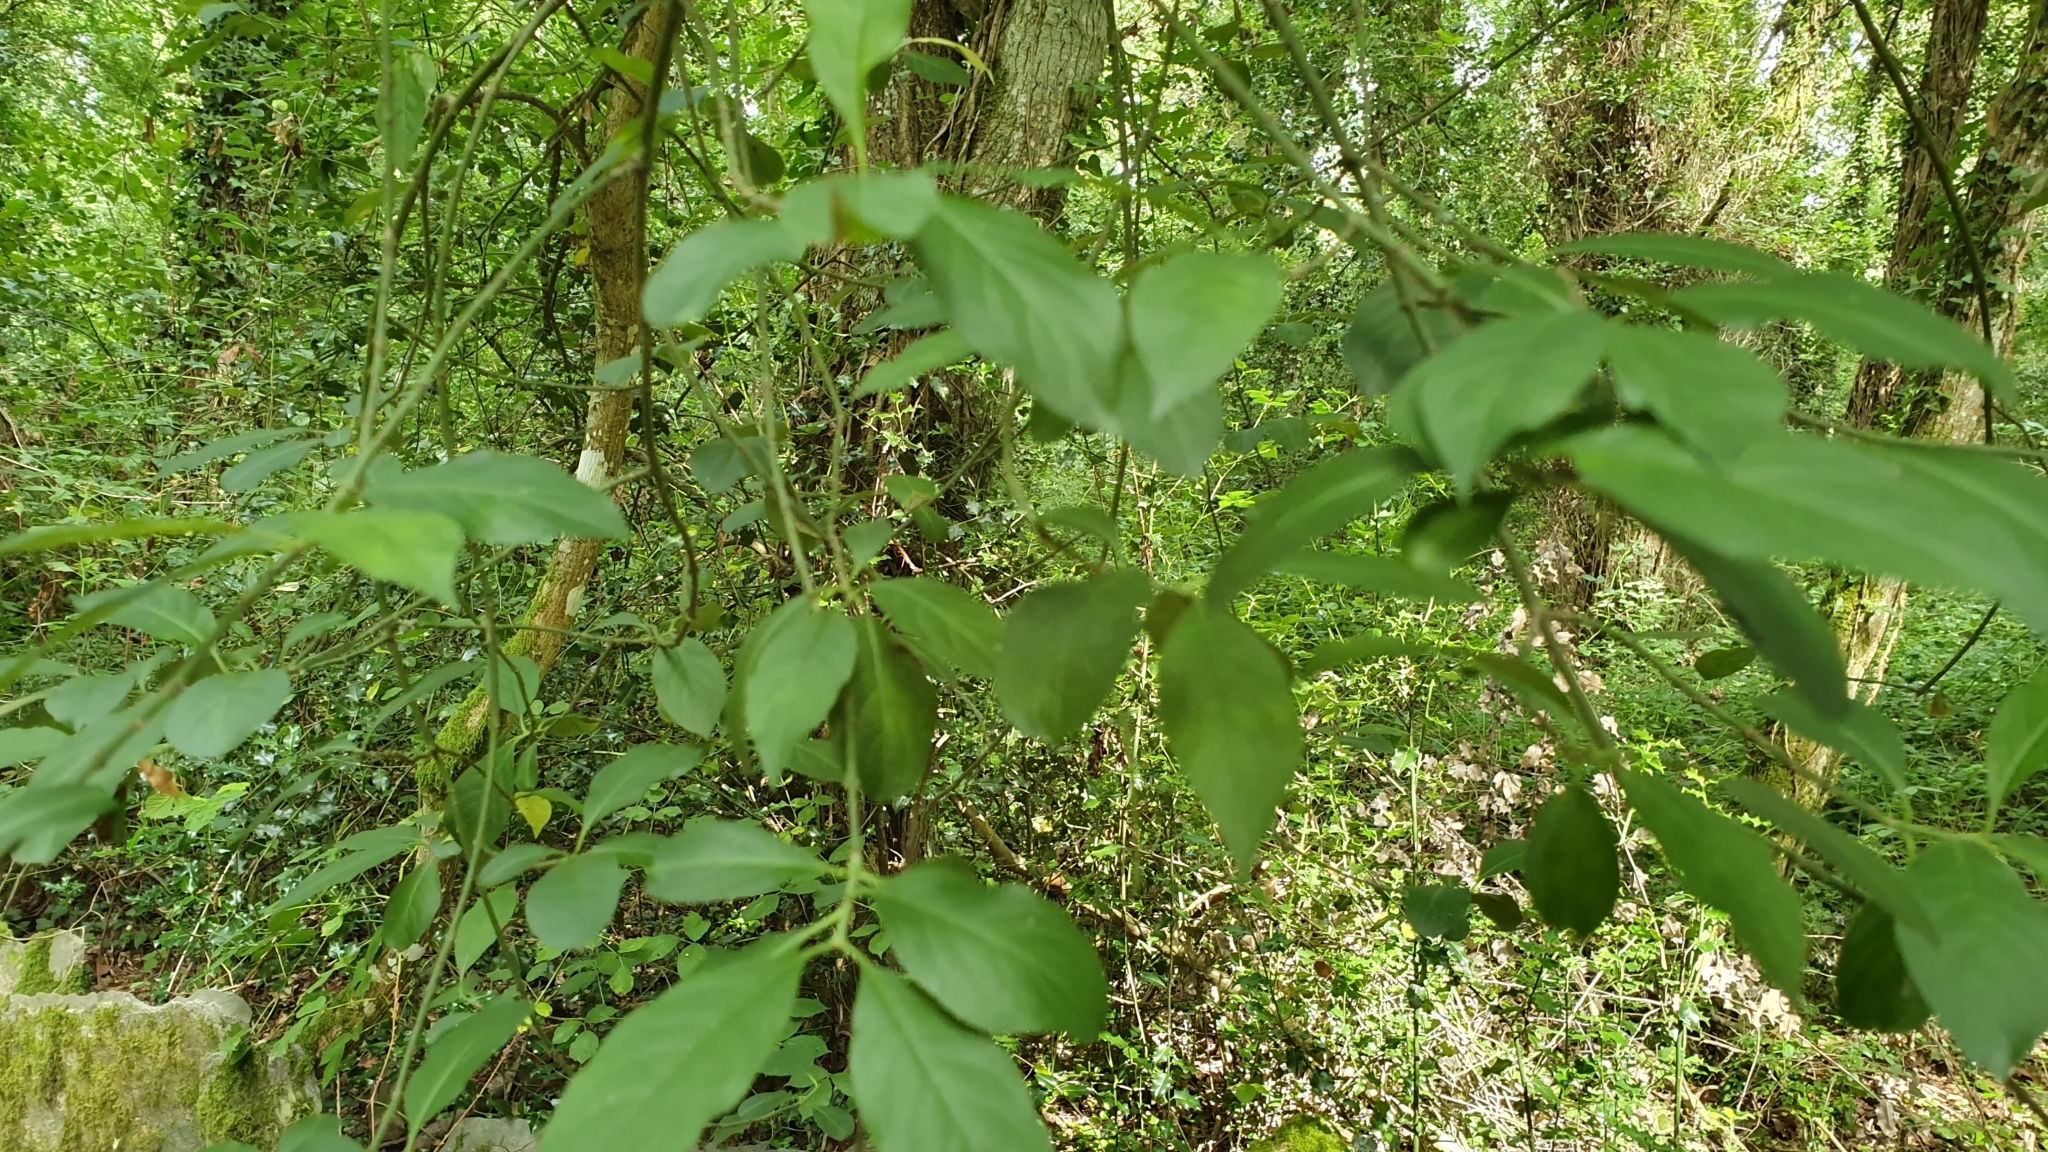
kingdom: Plantae
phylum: Tracheophyta
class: Magnoliopsida
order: Celastrales
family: Celastraceae
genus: Euonymus
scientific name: Euonymus europaeus
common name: Spindle
